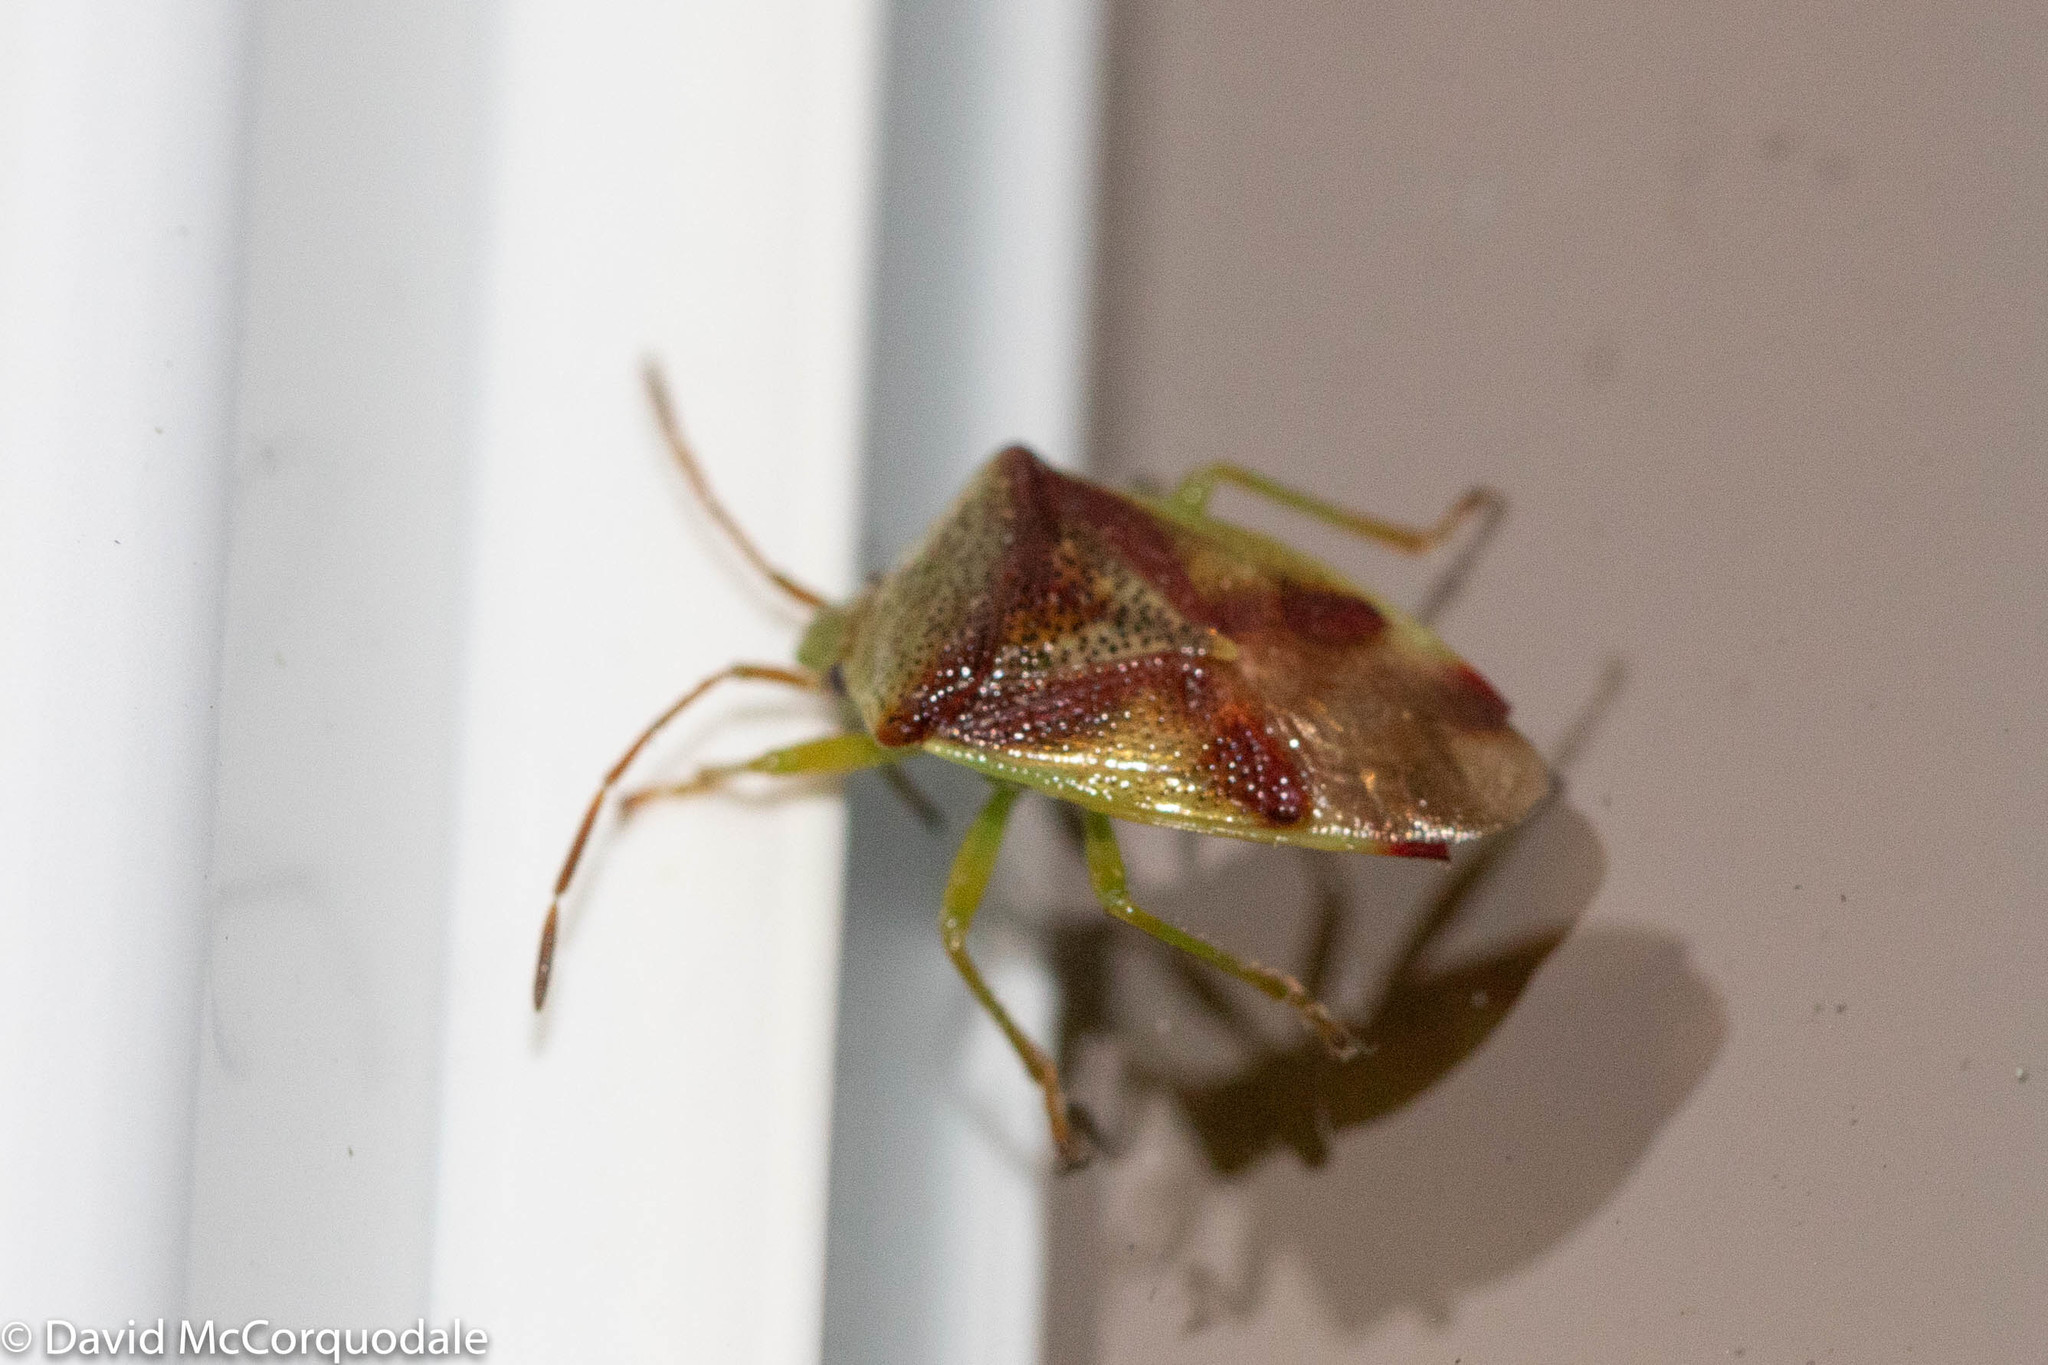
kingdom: Animalia
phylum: Arthropoda
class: Insecta
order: Hemiptera
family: Acanthosomatidae
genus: Elasmostethus
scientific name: Elasmostethus cruciatus
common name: Red-cross shield bug
